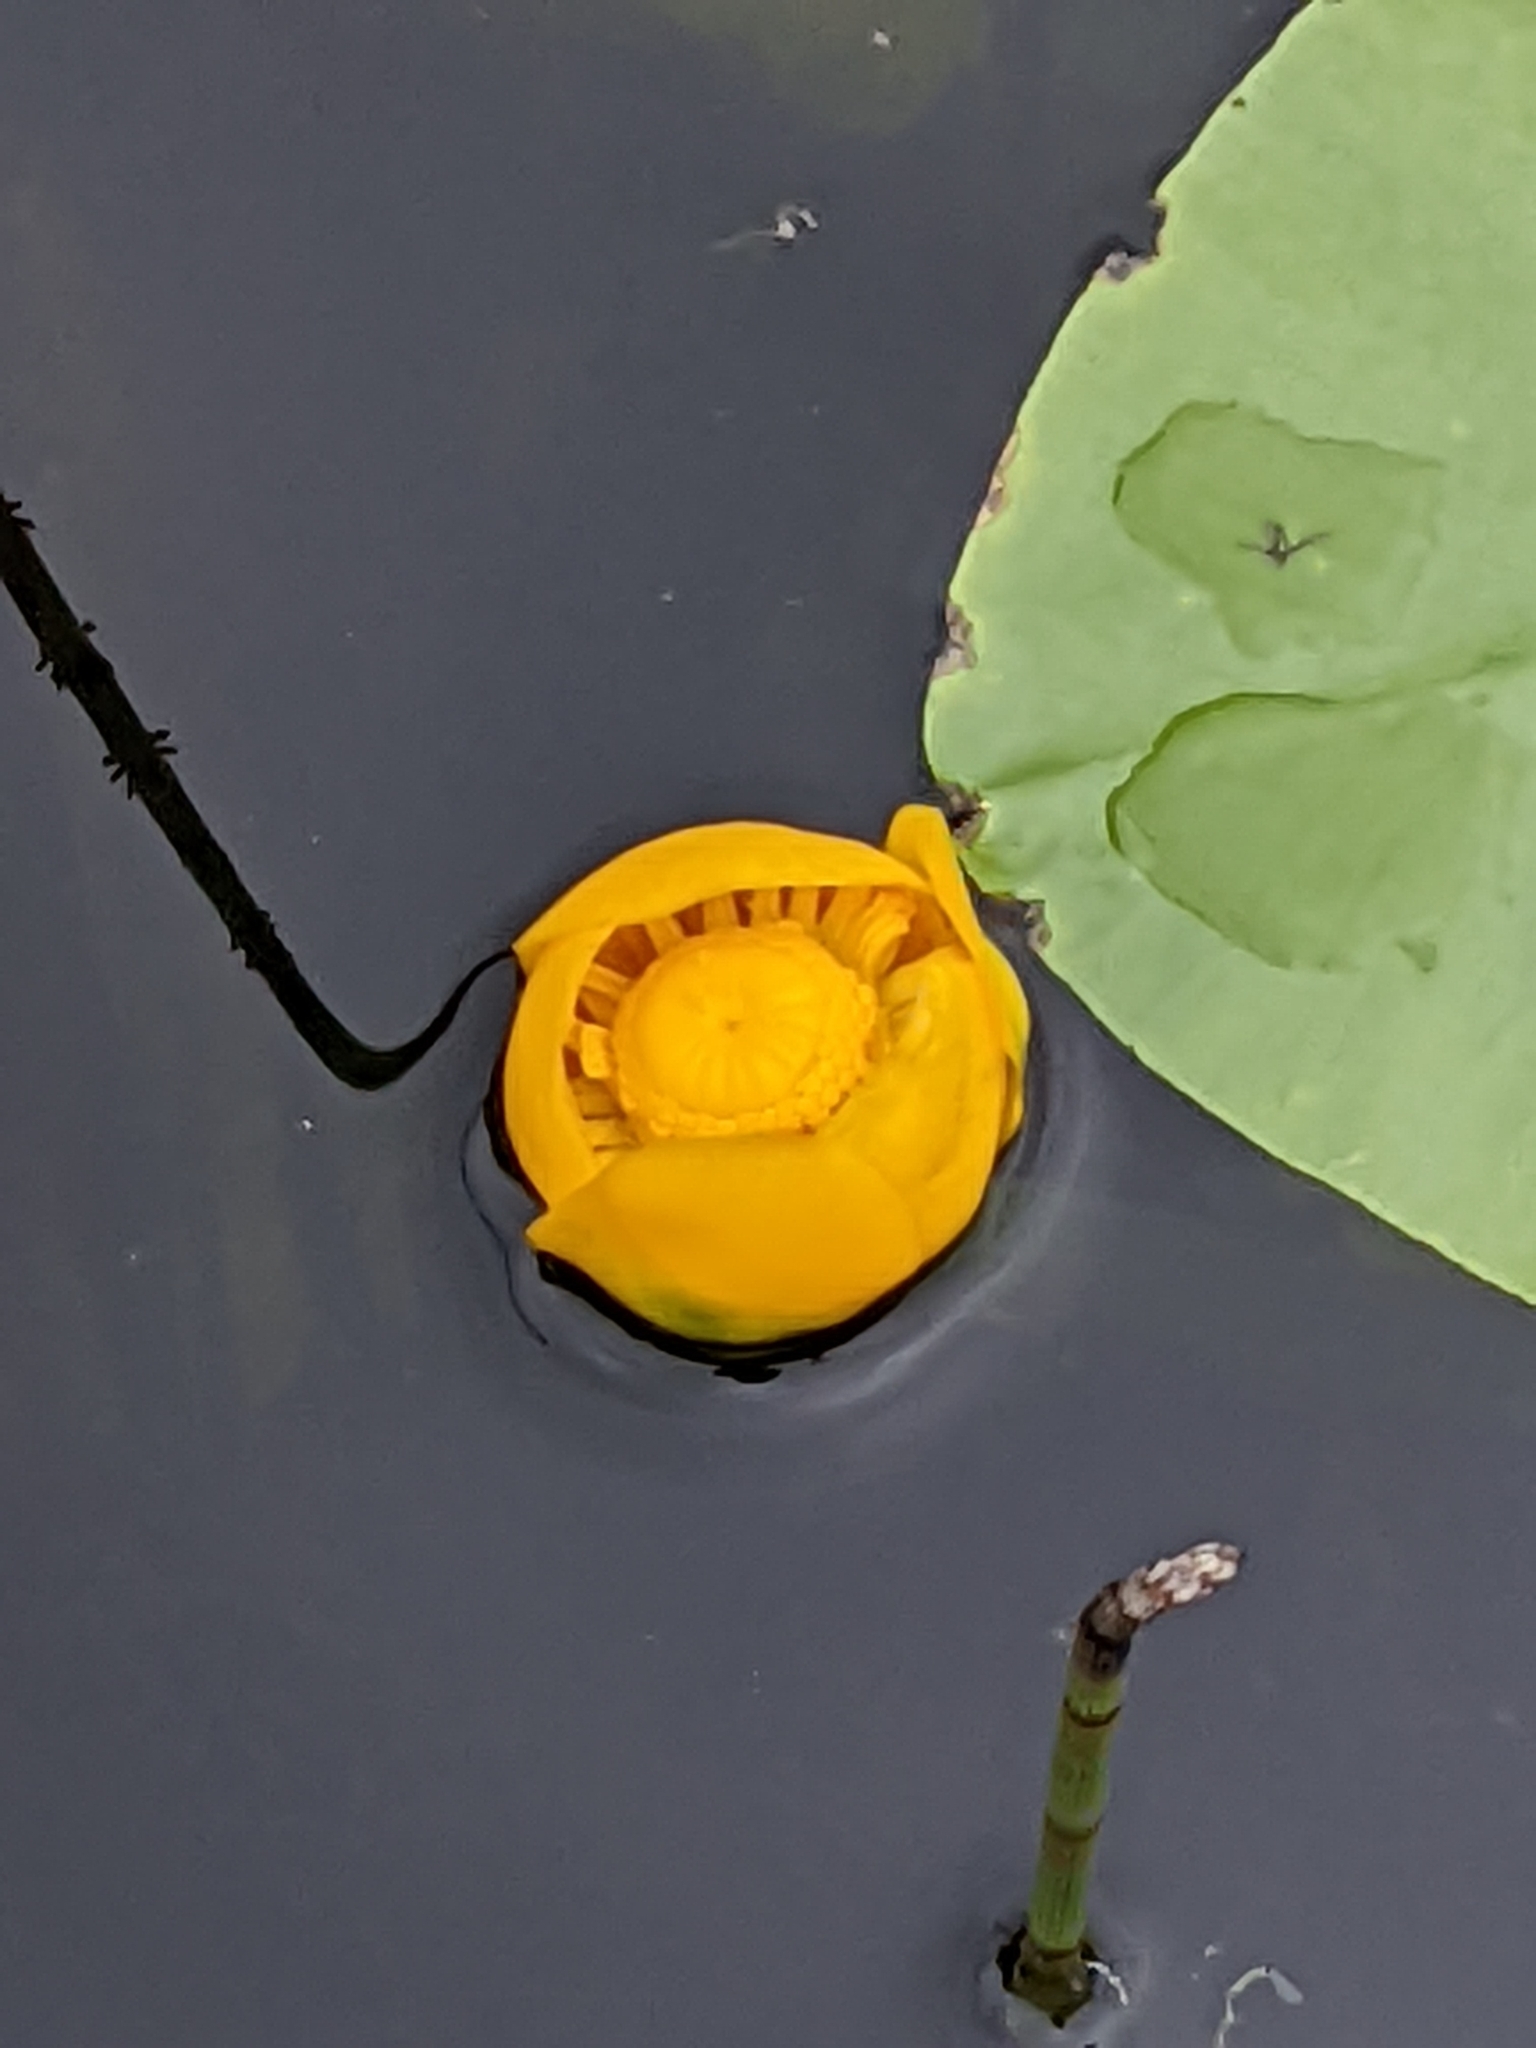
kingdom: Plantae
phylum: Tracheophyta
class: Magnoliopsida
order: Nymphaeales
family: Nymphaeaceae
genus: Nuphar
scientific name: Nuphar lutea
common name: Yellow water-lily
